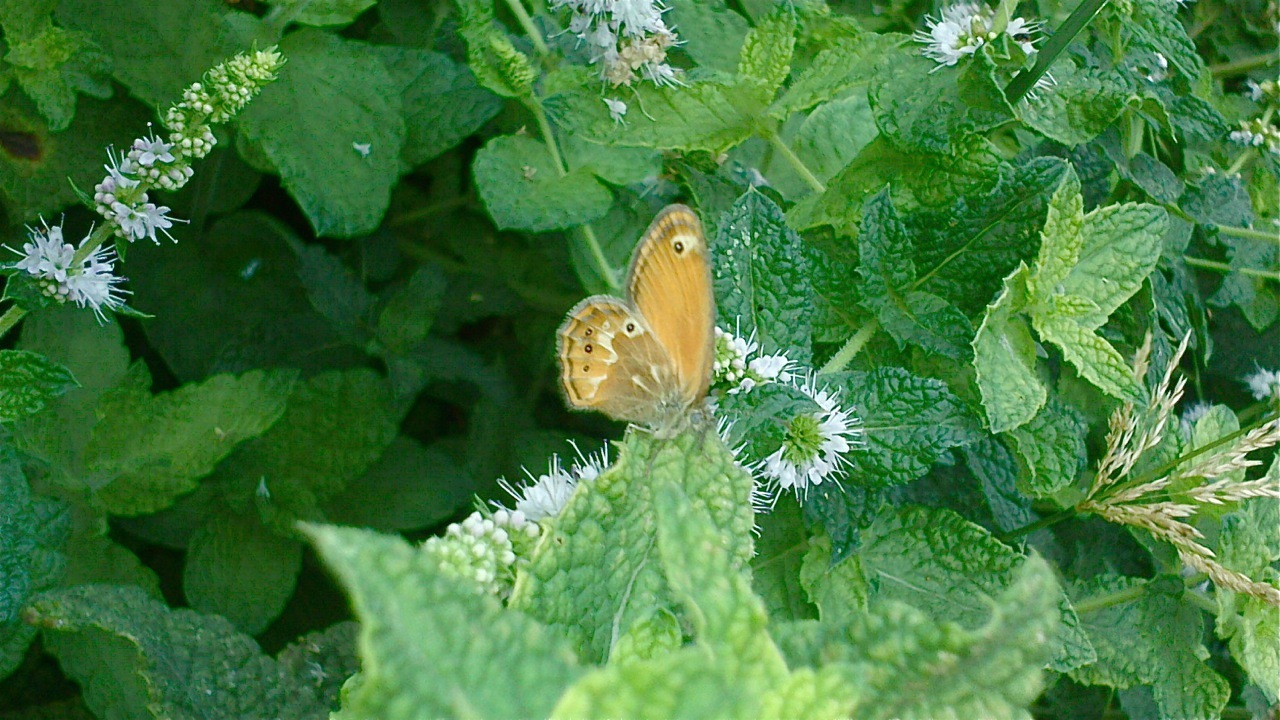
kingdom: Animalia
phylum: Arthropoda
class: Insecta
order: Lepidoptera
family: Nymphalidae
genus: Coenonympha
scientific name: Coenonympha corinna
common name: Corsican heath
